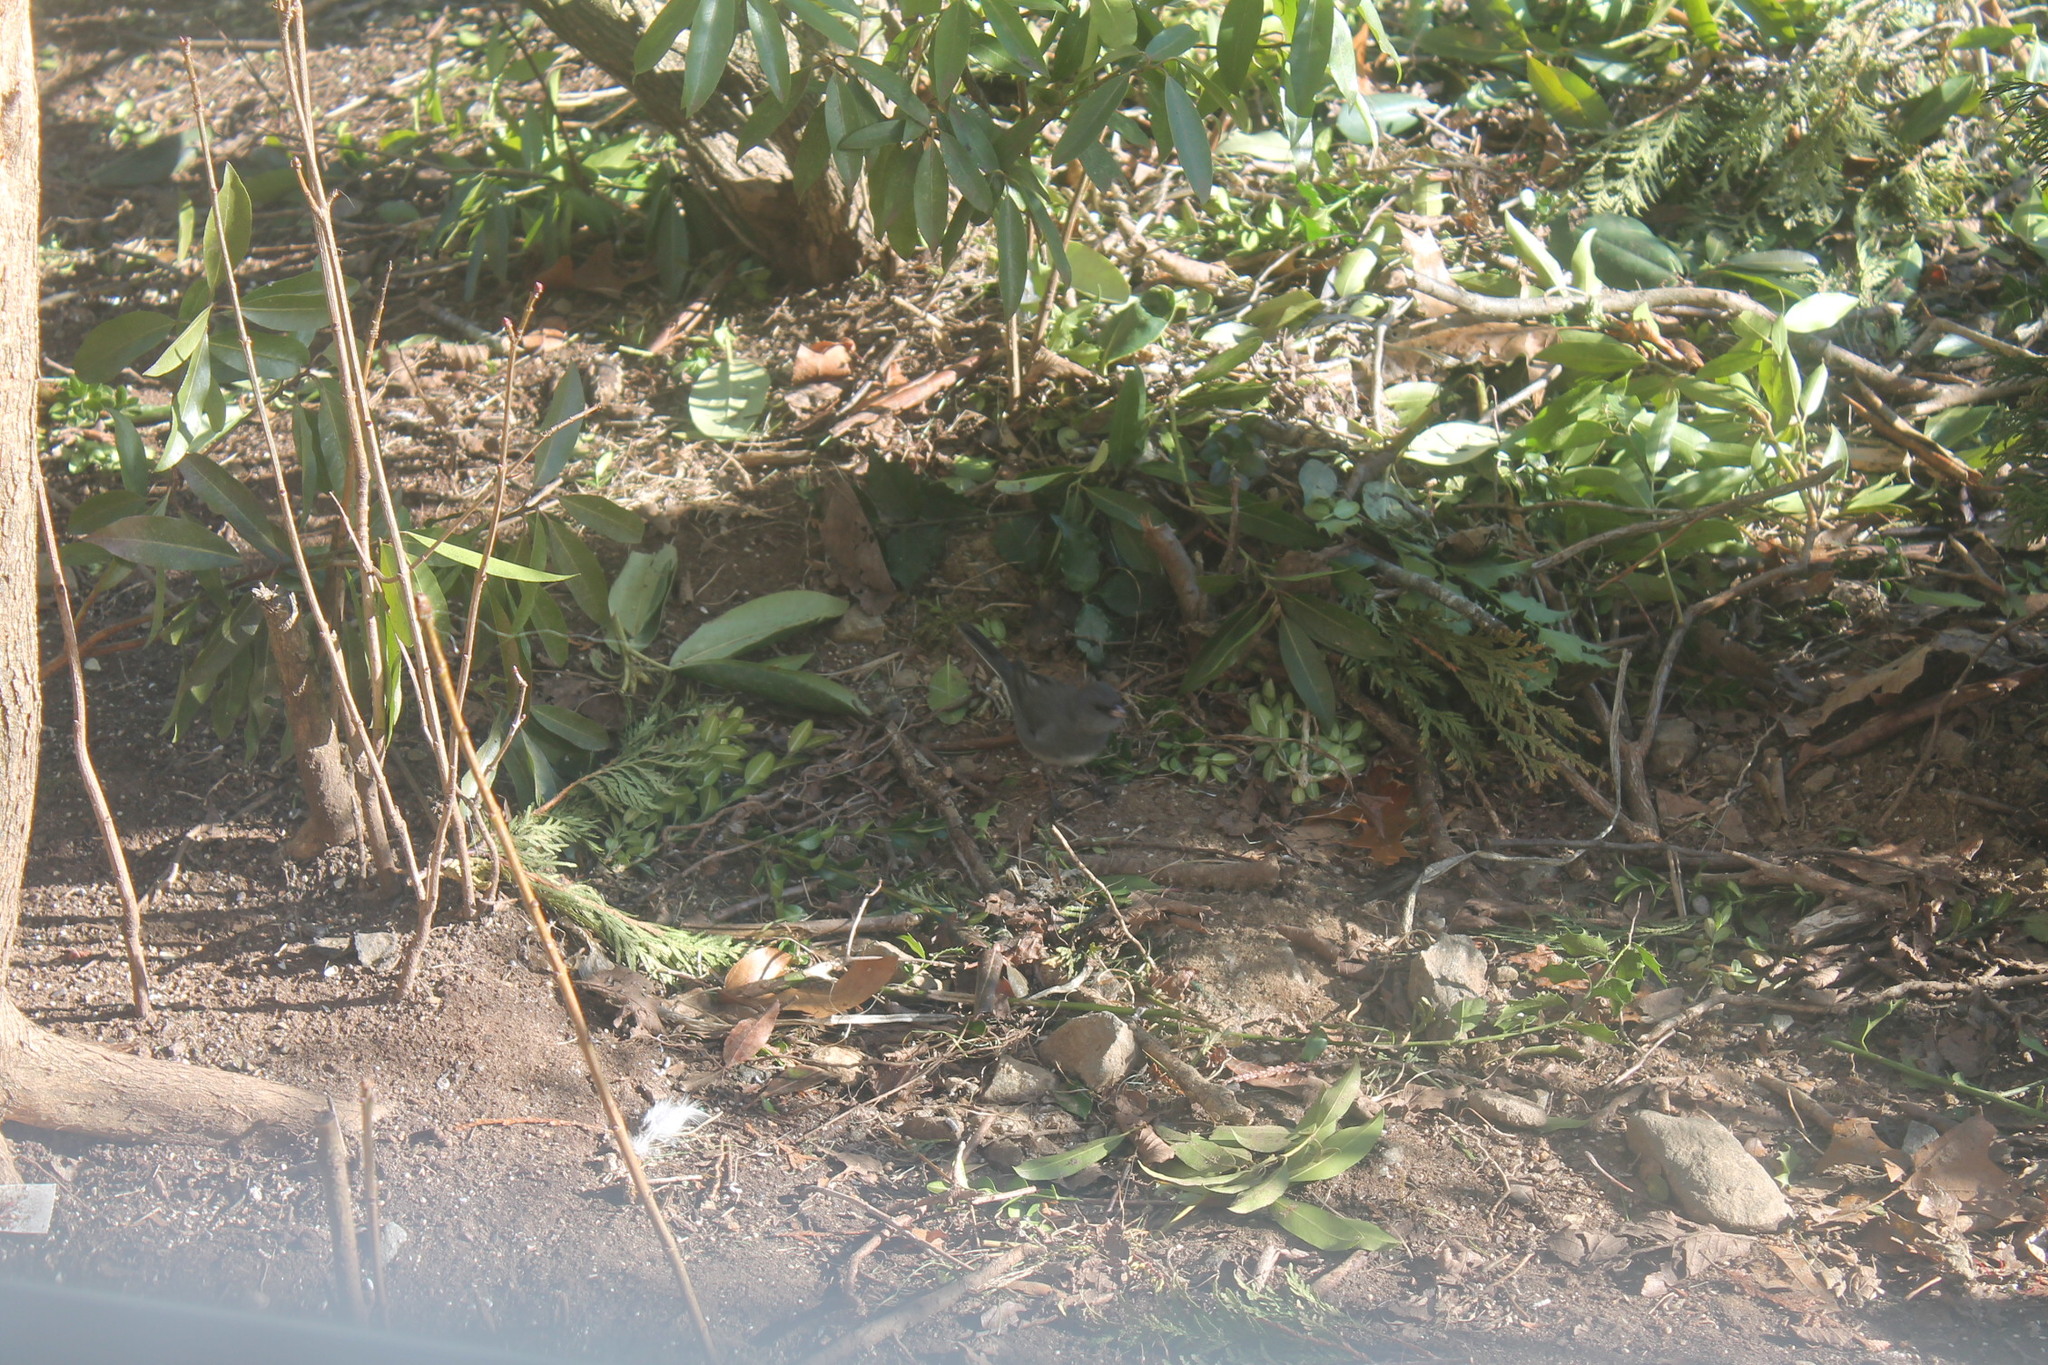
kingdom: Animalia
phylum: Chordata
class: Aves
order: Passeriformes
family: Passerellidae
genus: Junco
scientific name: Junco hyemalis
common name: Dark-eyed junco
